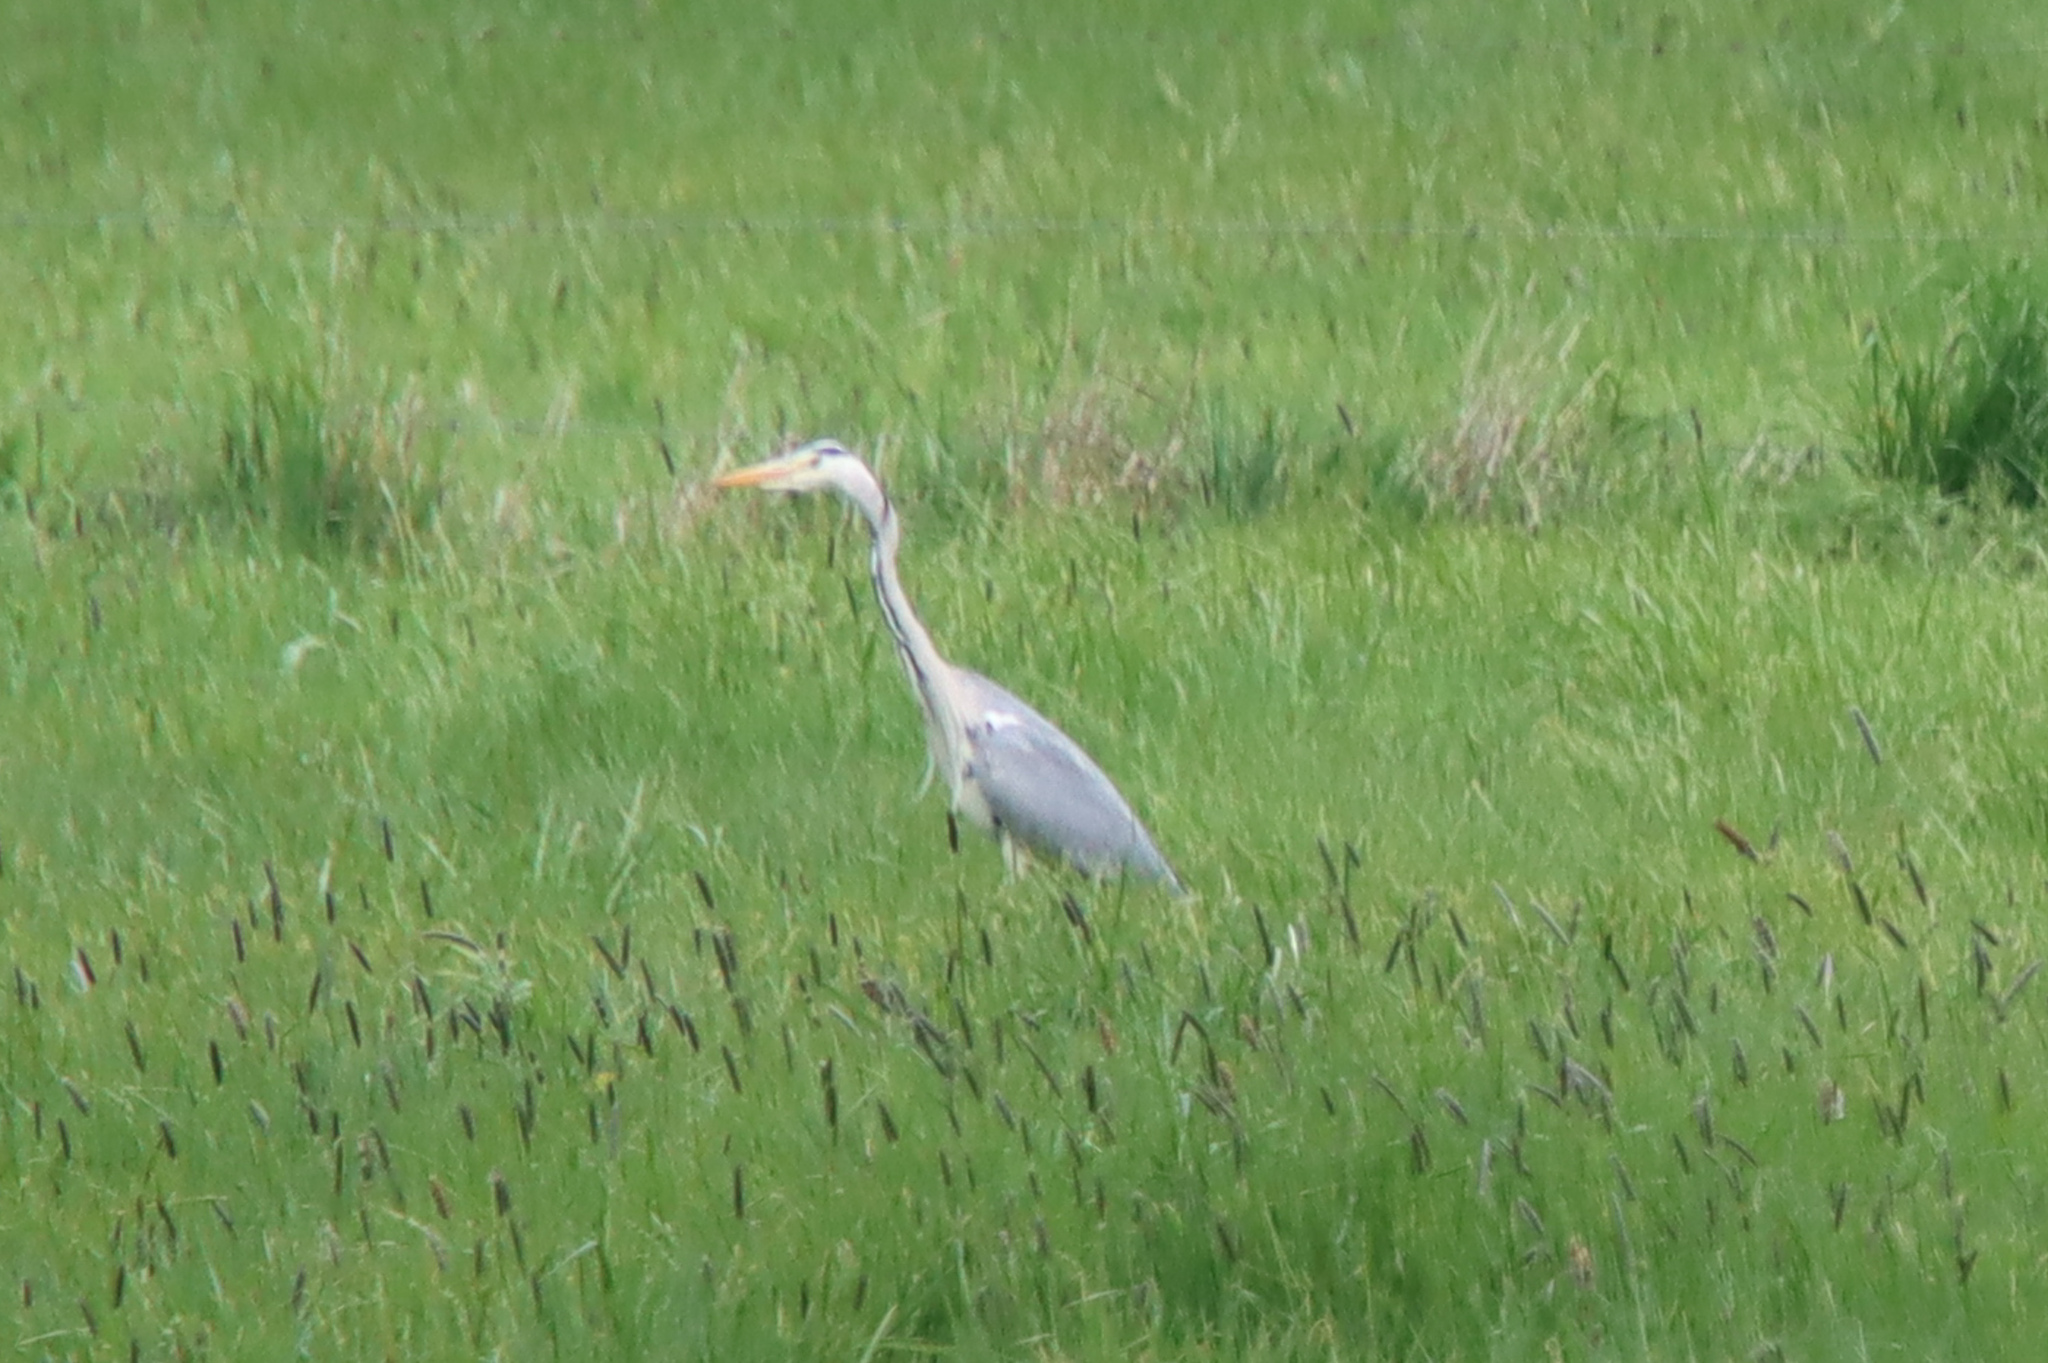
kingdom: Animalia
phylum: Chordata
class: Aves
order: Pelecaniformes
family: Ardeidae
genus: Ardea
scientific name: Ardea cinerea
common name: Grey heron
